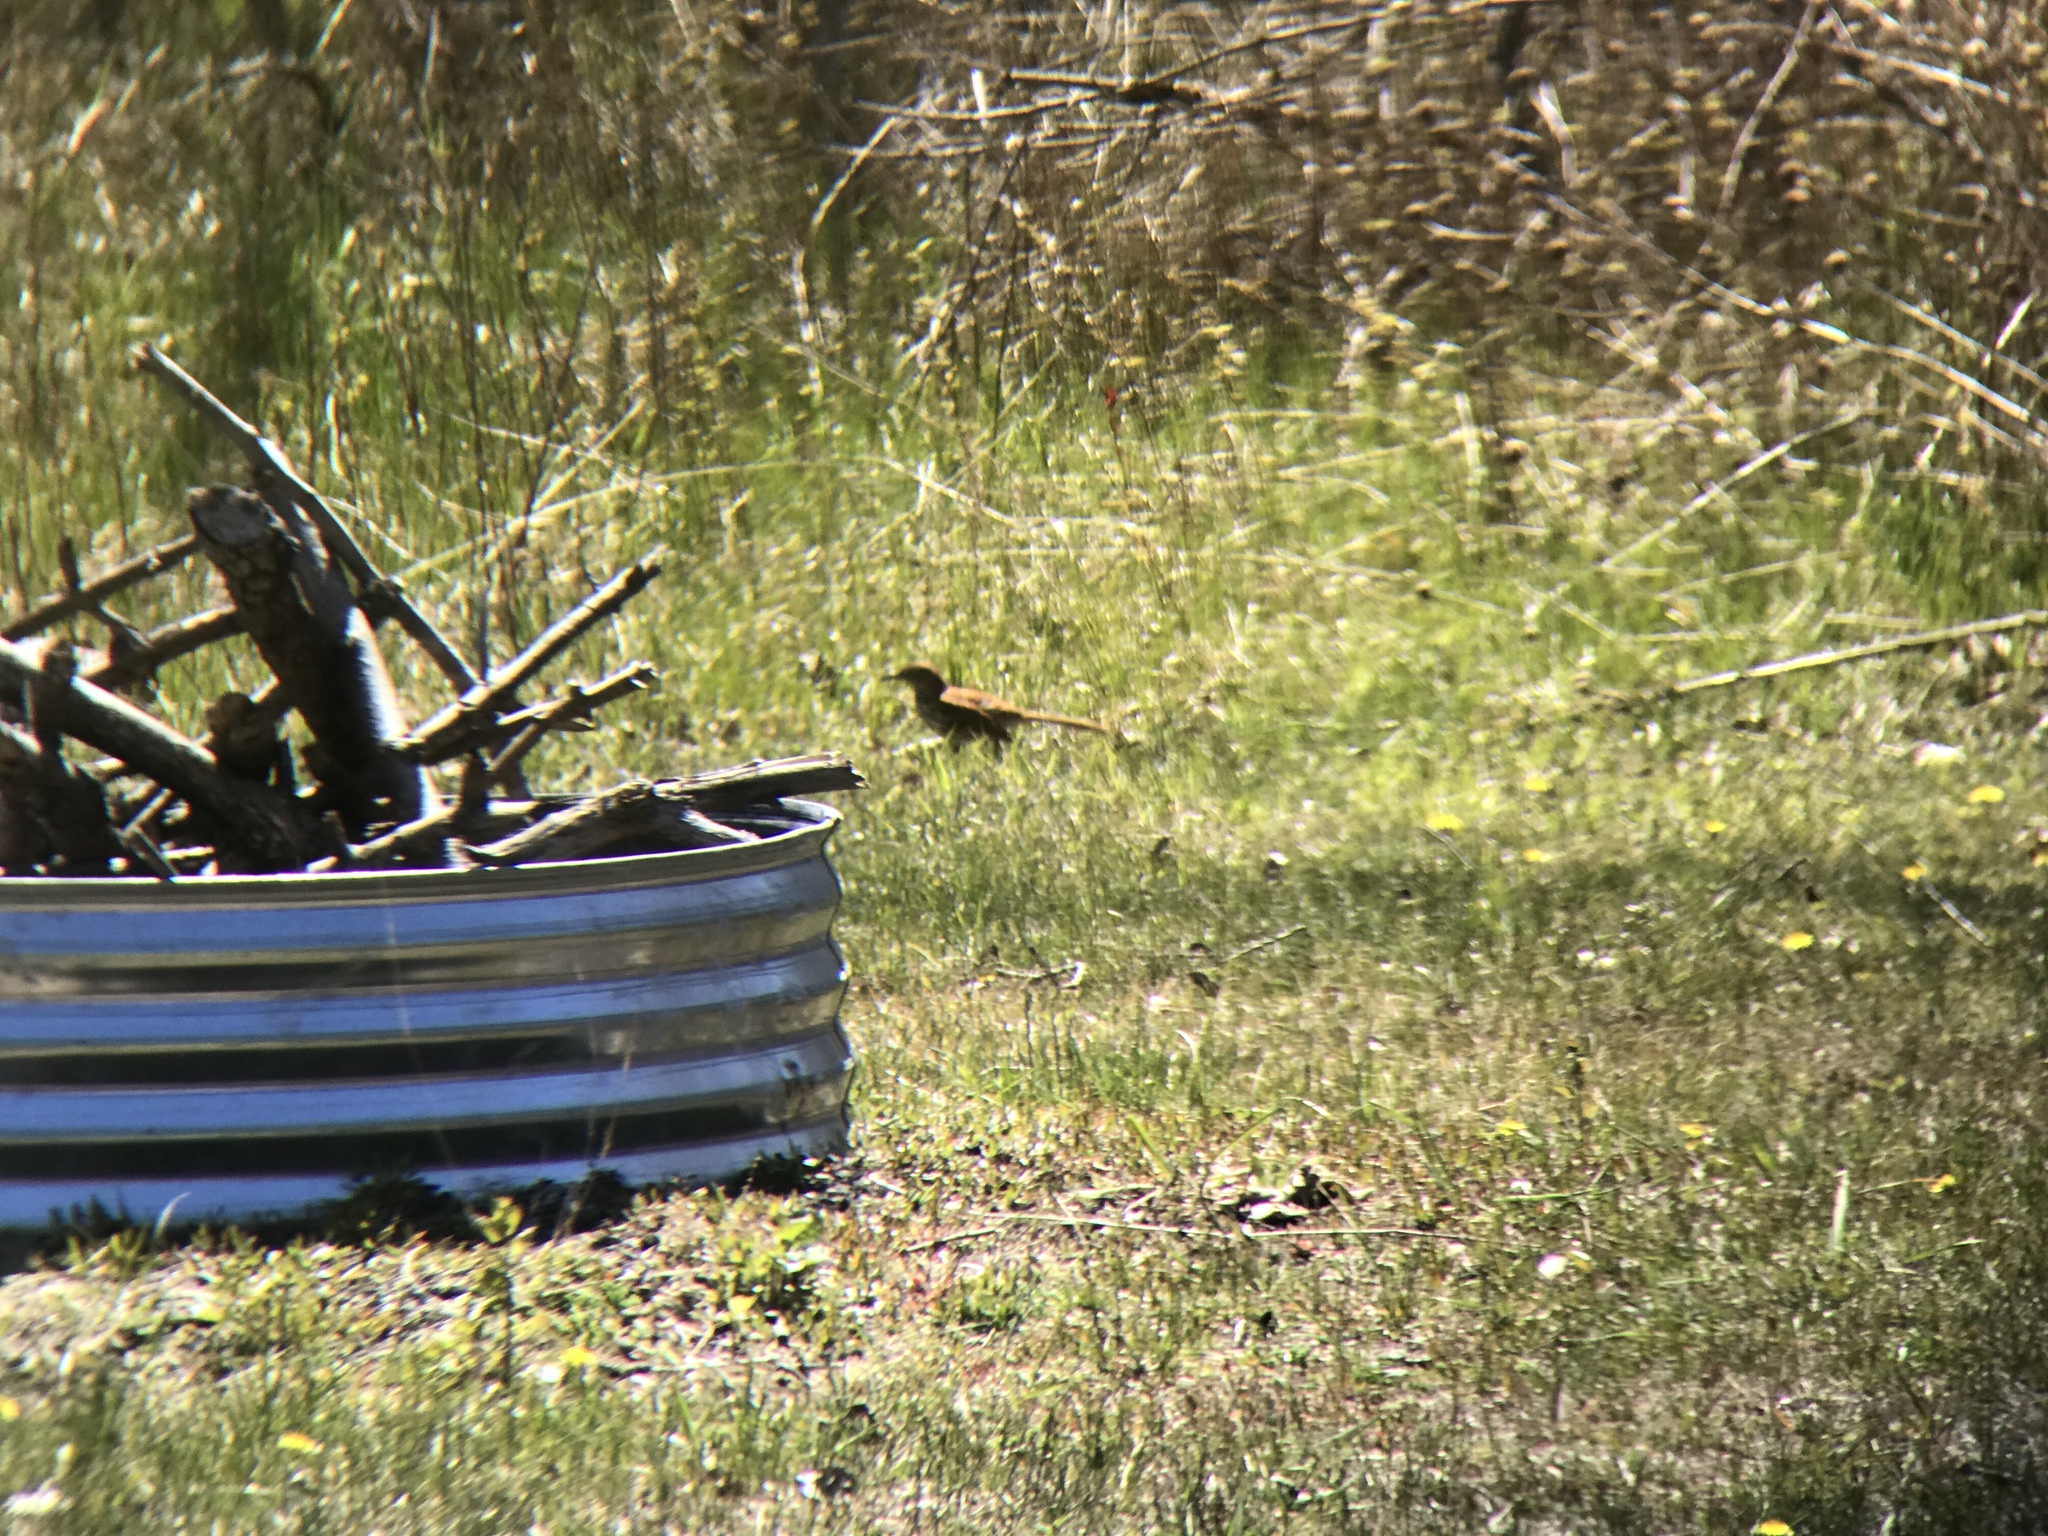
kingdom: Animalia
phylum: Chordata
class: Aves
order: Passeriformes
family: Mimidae
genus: Toxostoma
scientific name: Toxostoma rufum
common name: Brown thrasher
